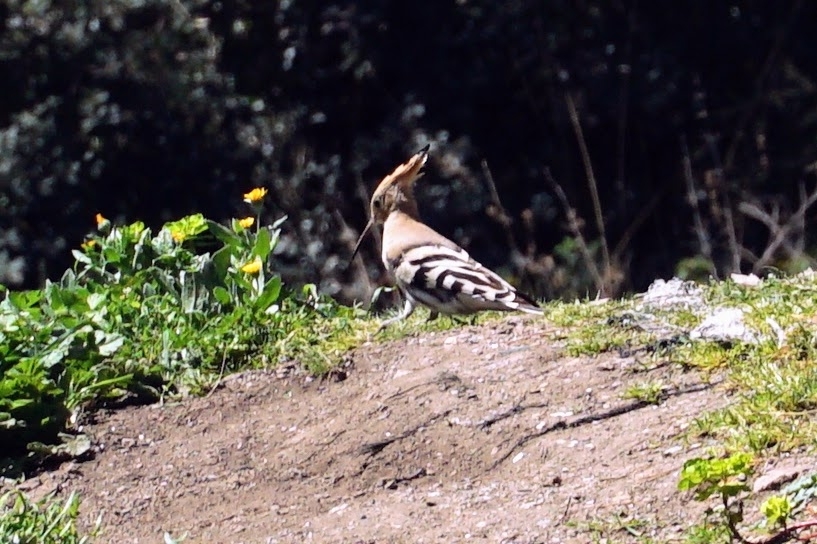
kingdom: Animalia
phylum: Chordata
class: Aves
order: Bucerotiformes
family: Upupidae
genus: Upupa
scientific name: Upupa epops
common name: Eurasian hoopoe
